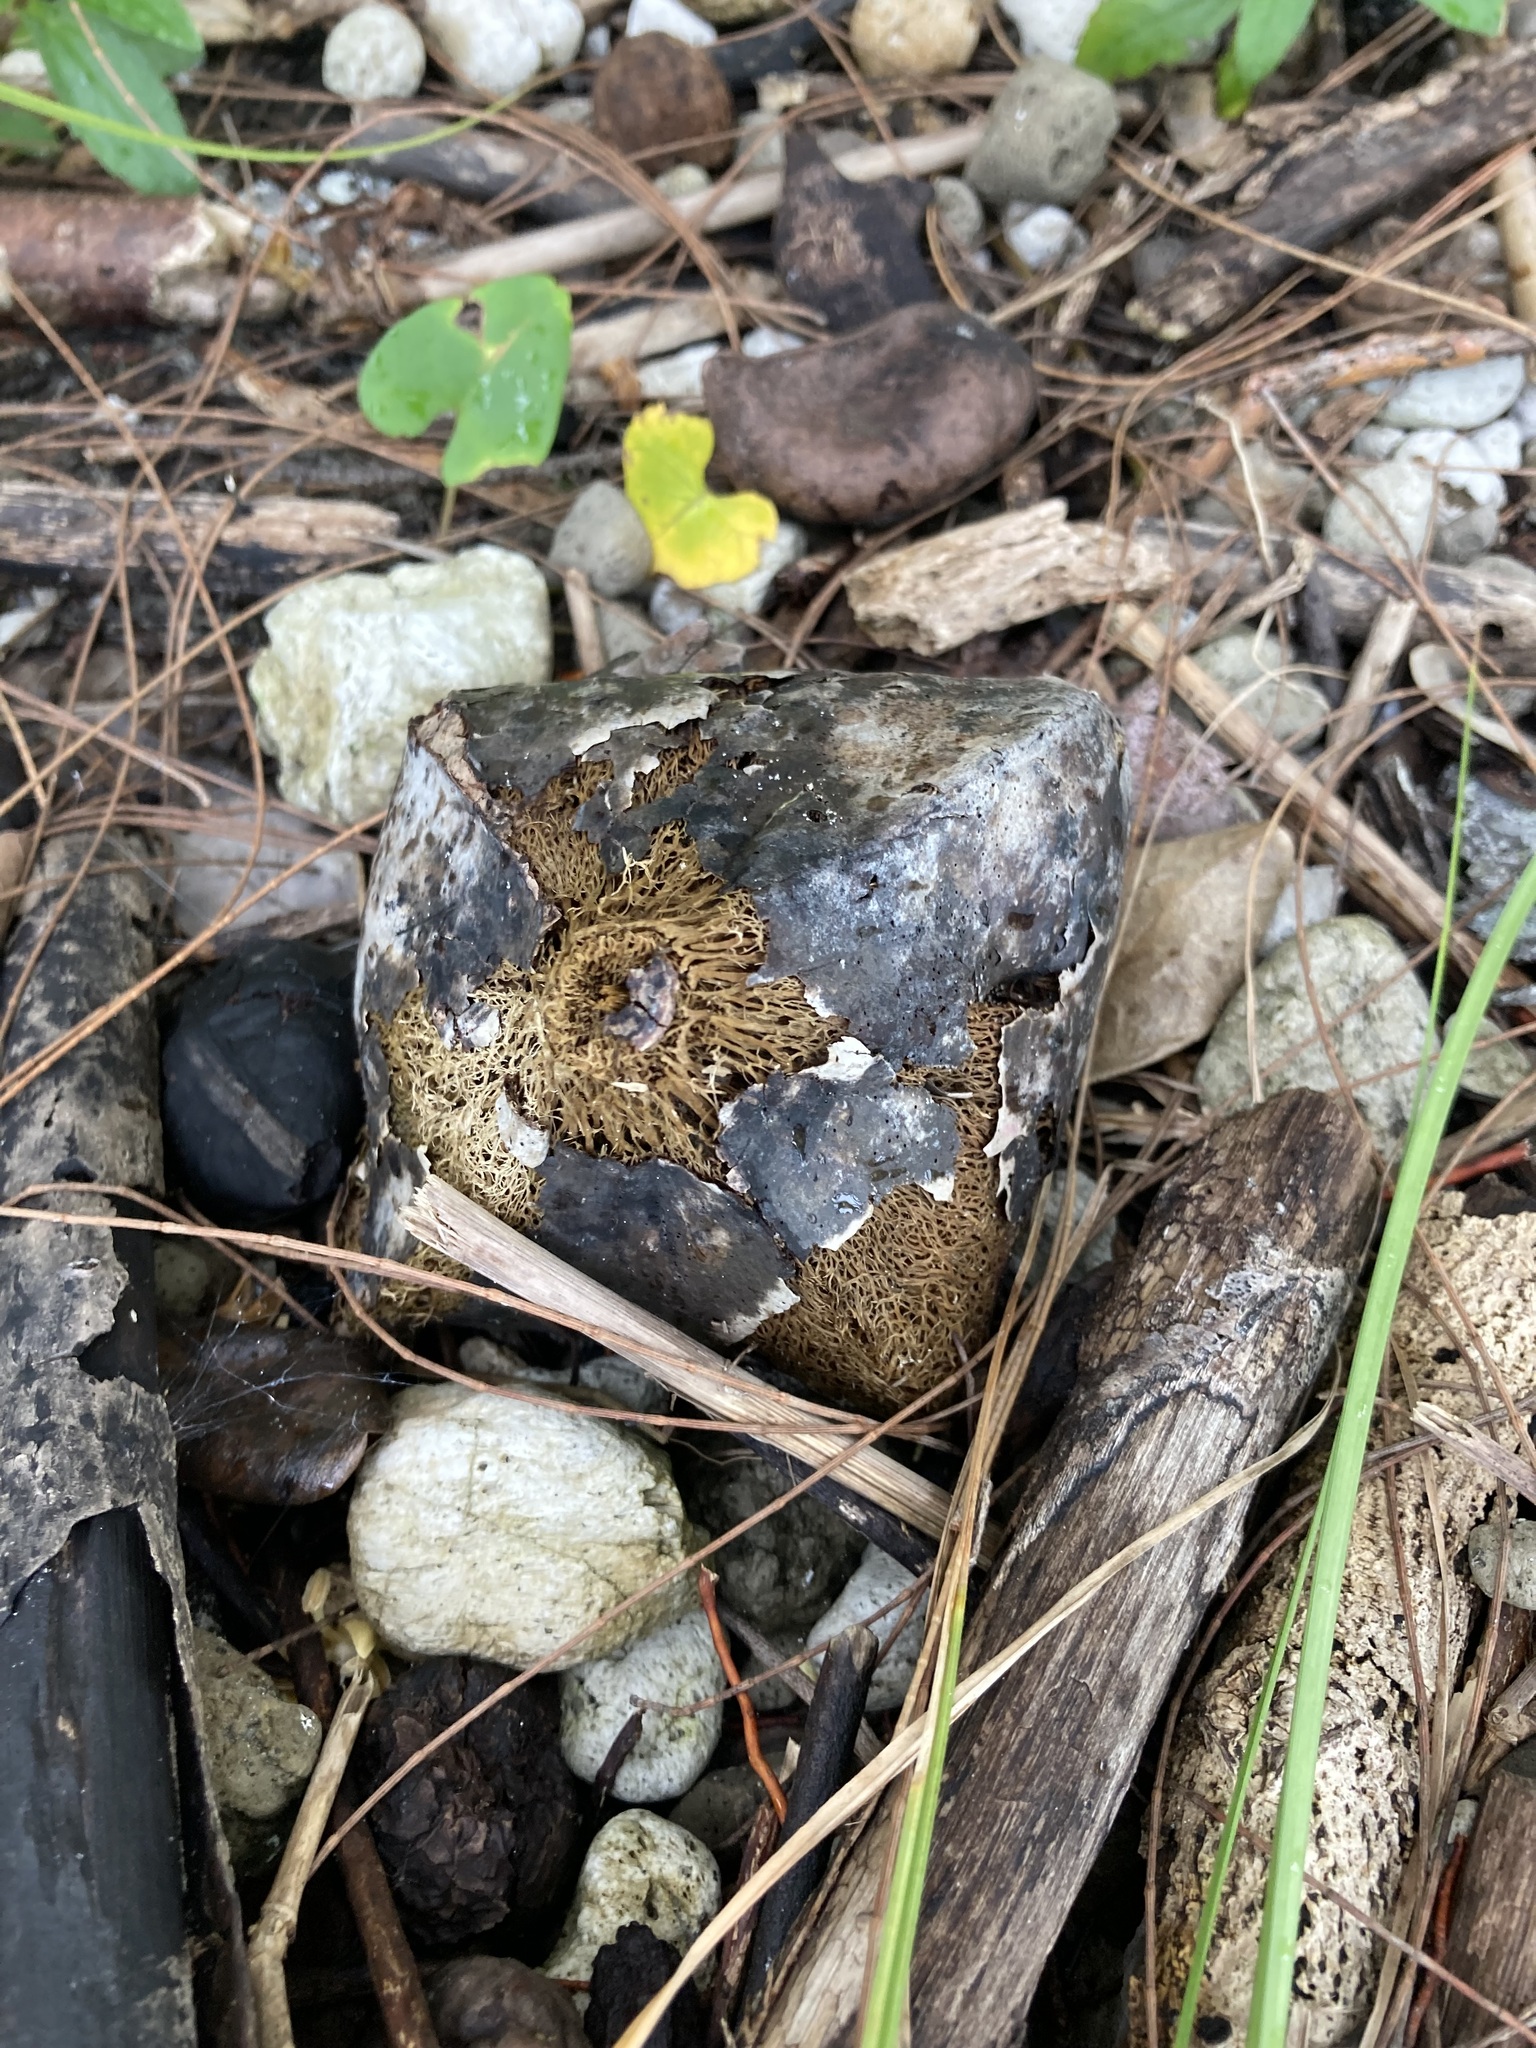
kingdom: Plantae
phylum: Tracheophyta
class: Magnoliopsida
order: Ericales
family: Lecythidaceae
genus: Barringtonia
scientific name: Barringtonia asiatica
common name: Mango-pine
